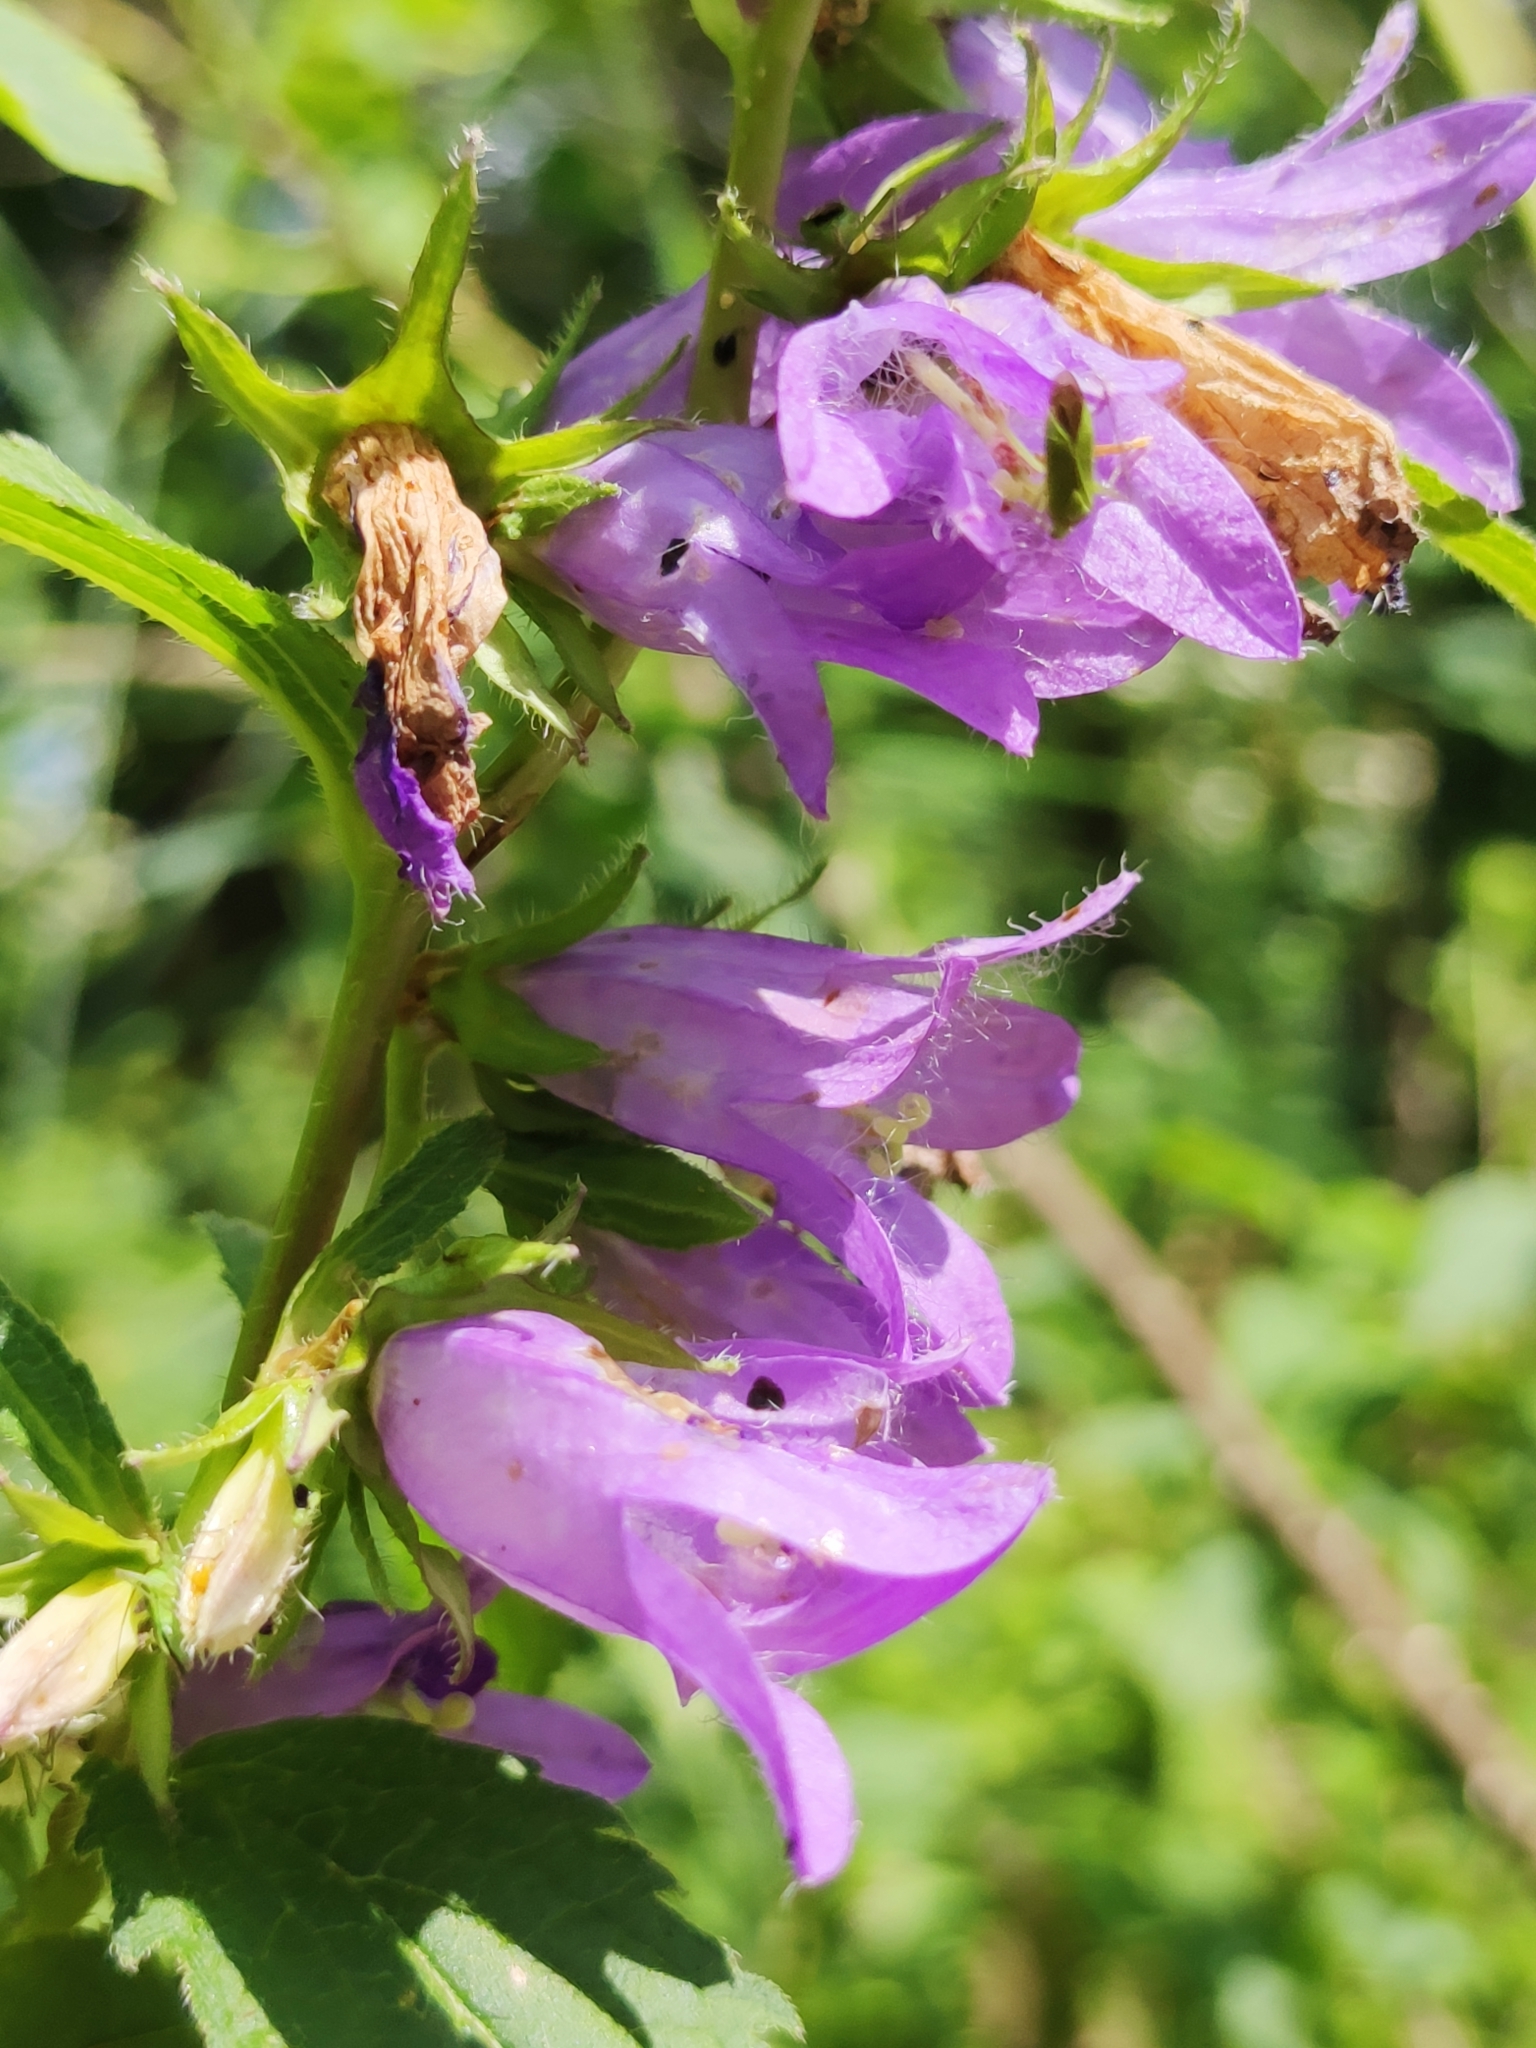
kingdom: Plantae
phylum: Tracheophyta
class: Magnoliopsida
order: Asterales
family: Campanulaceae
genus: Campanula
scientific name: Campanula trachelium
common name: Nettle-leaved bellflower
